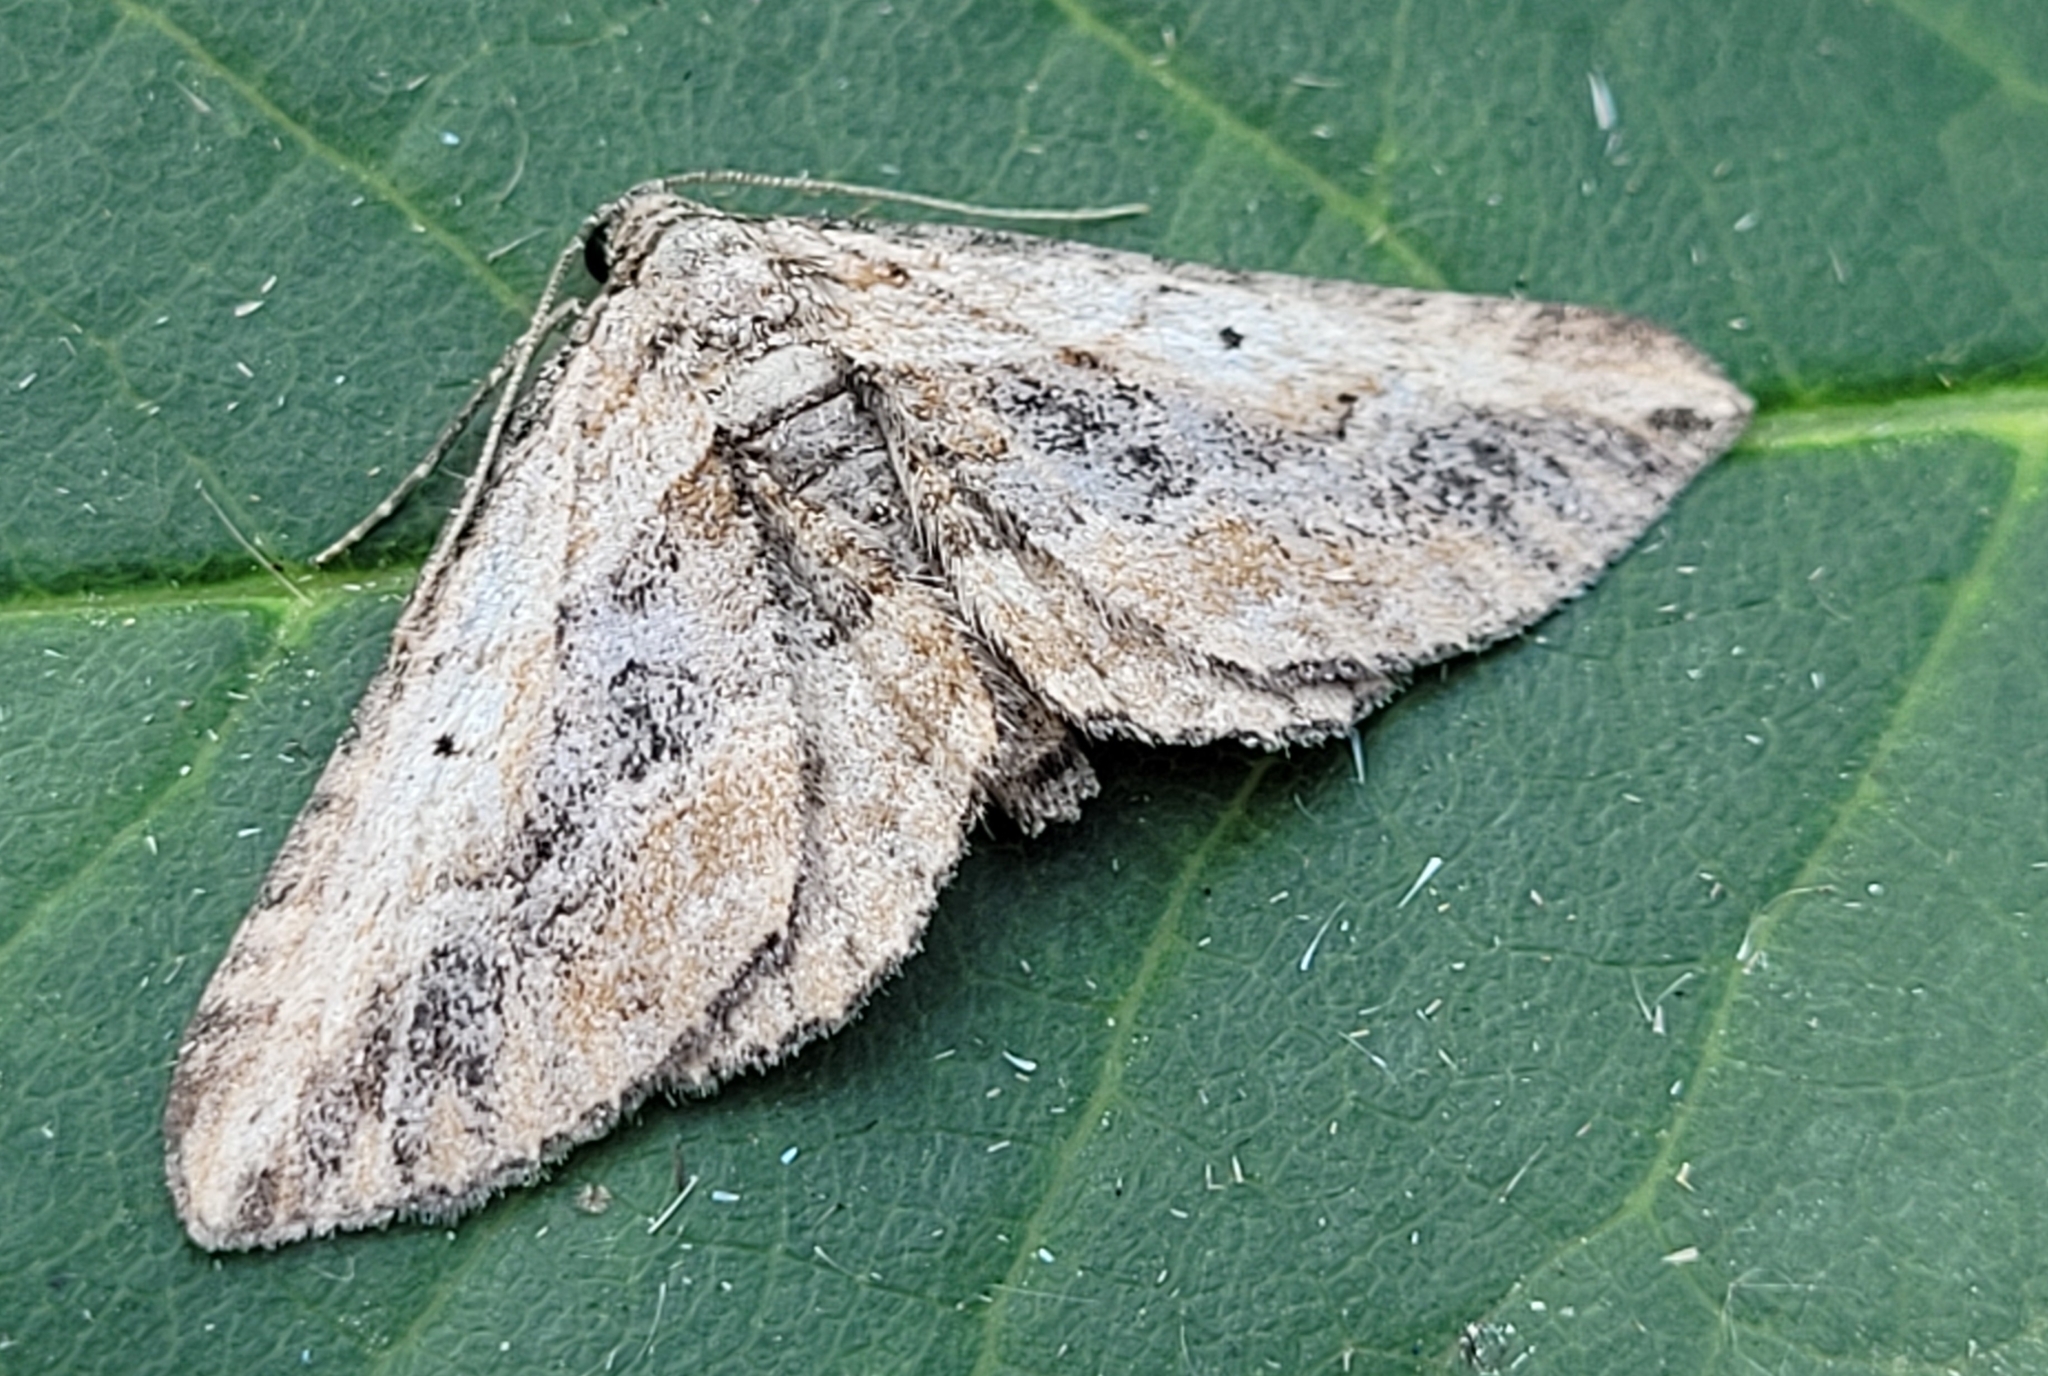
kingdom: Animalia
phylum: Arthropoda
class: Insecta
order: Lepidoptera
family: Geometridae
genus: Horisme
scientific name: Horisme incana
